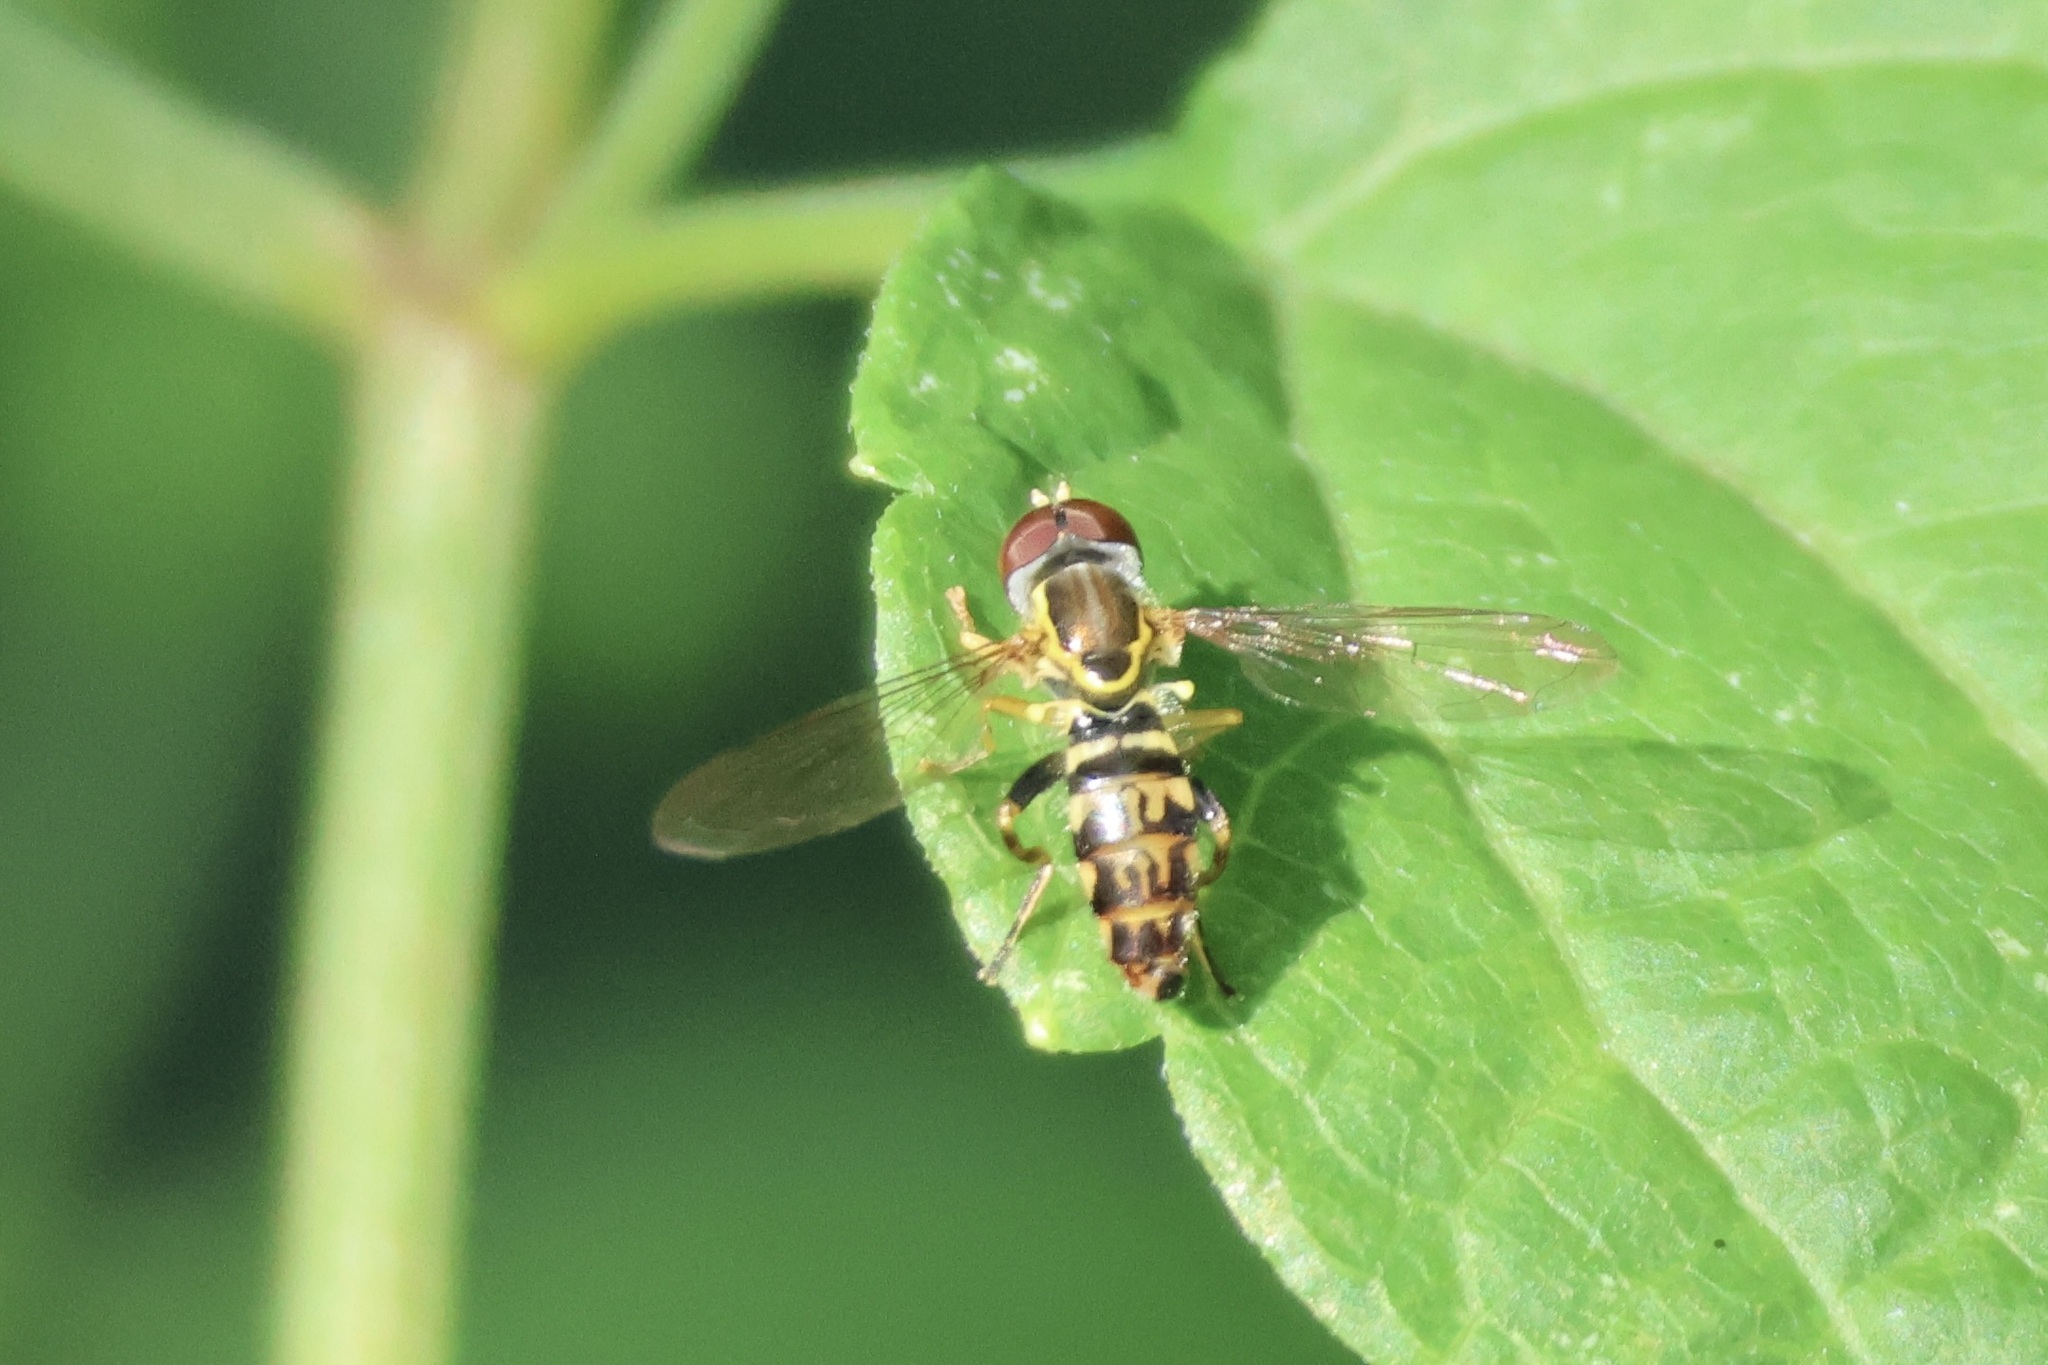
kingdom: Animalia
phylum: Arthropoda
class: Insecta
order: Diptera
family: Syrphidae
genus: Toxomerus
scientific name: Toxomerus geminatus
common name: Eastern calligrapher
